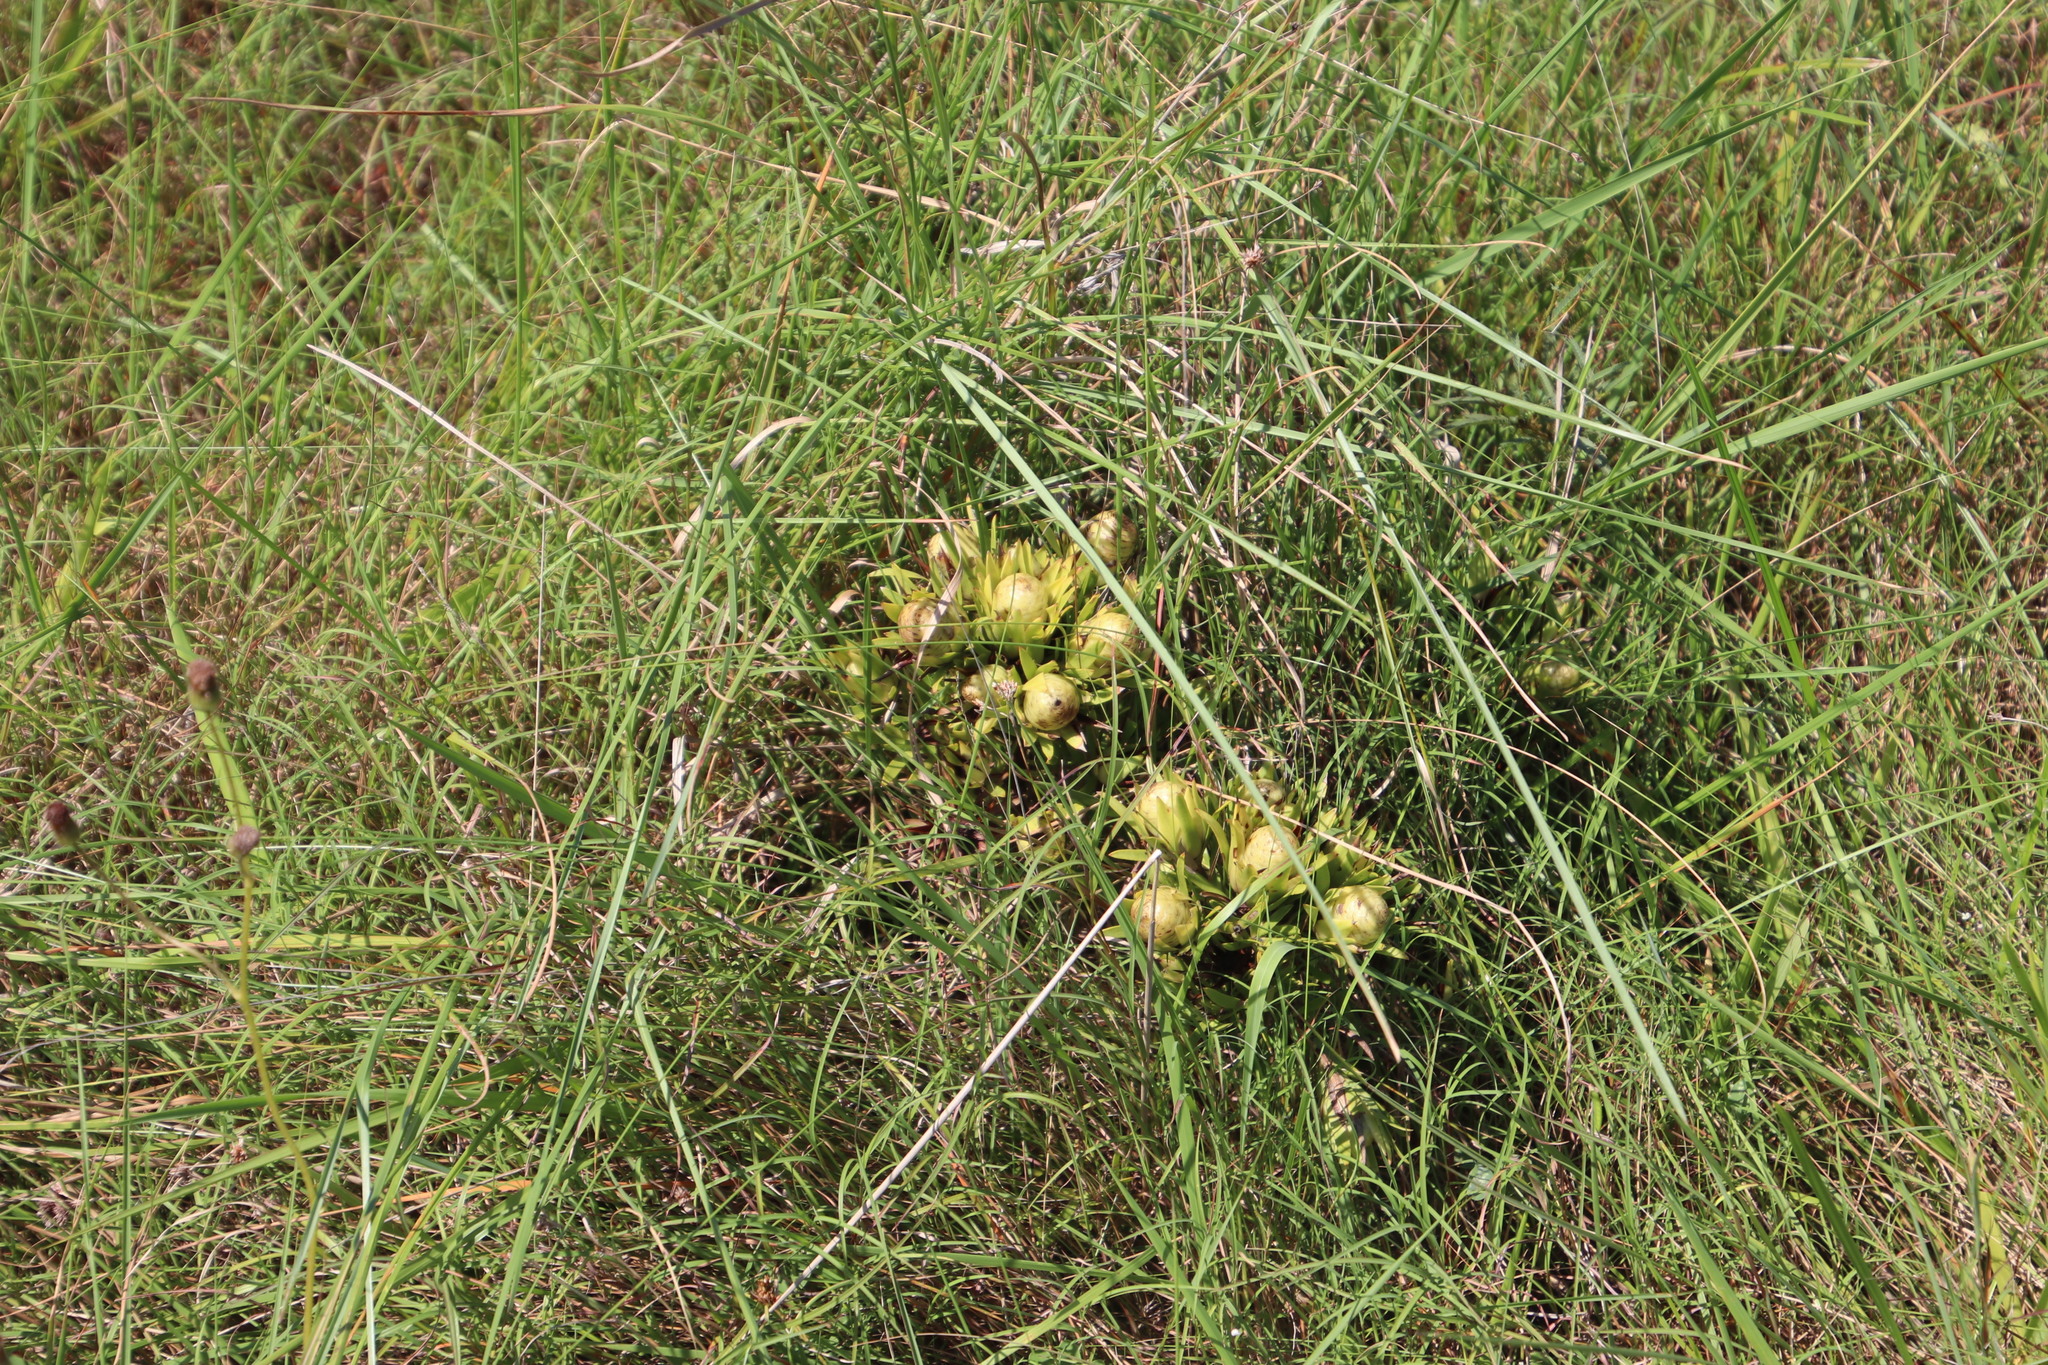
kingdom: Plantae
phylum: Tracheophyta
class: Magnoliopsida
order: Proteales
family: Proteaceae
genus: Leucadendron
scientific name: Leucadendron spissifolium
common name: Spear-leaf conebush
